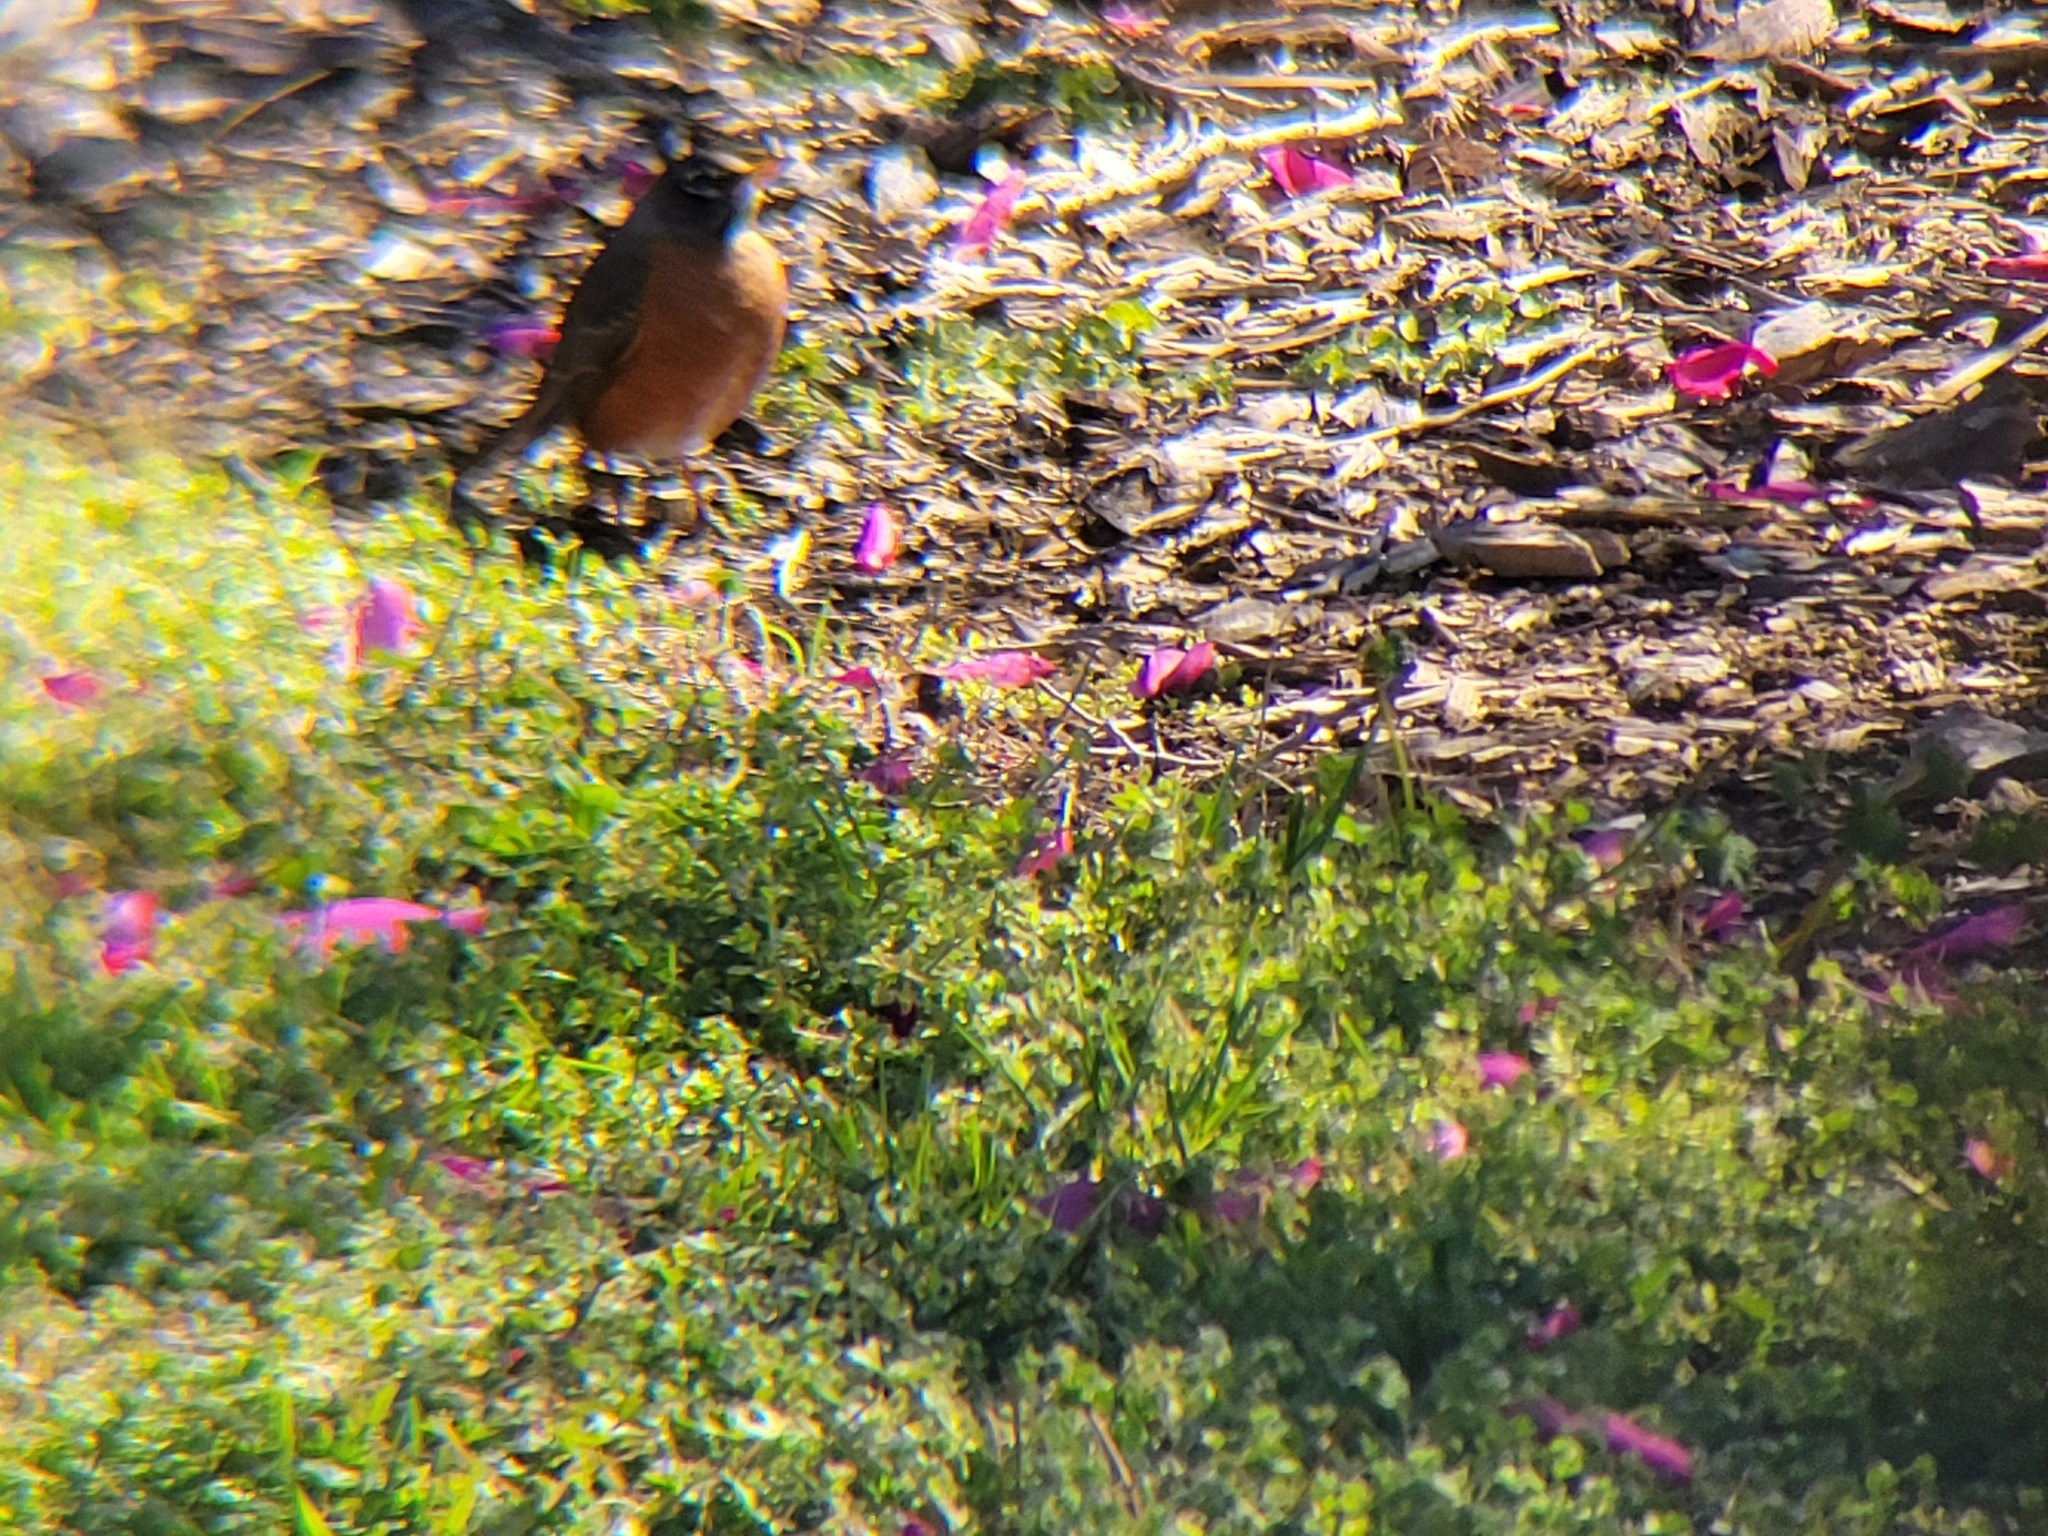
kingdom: Animalia
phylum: Chordata
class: Aves
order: Passeriformes
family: Turdidae
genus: Turdus
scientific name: Turdus migratorius
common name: American robin
